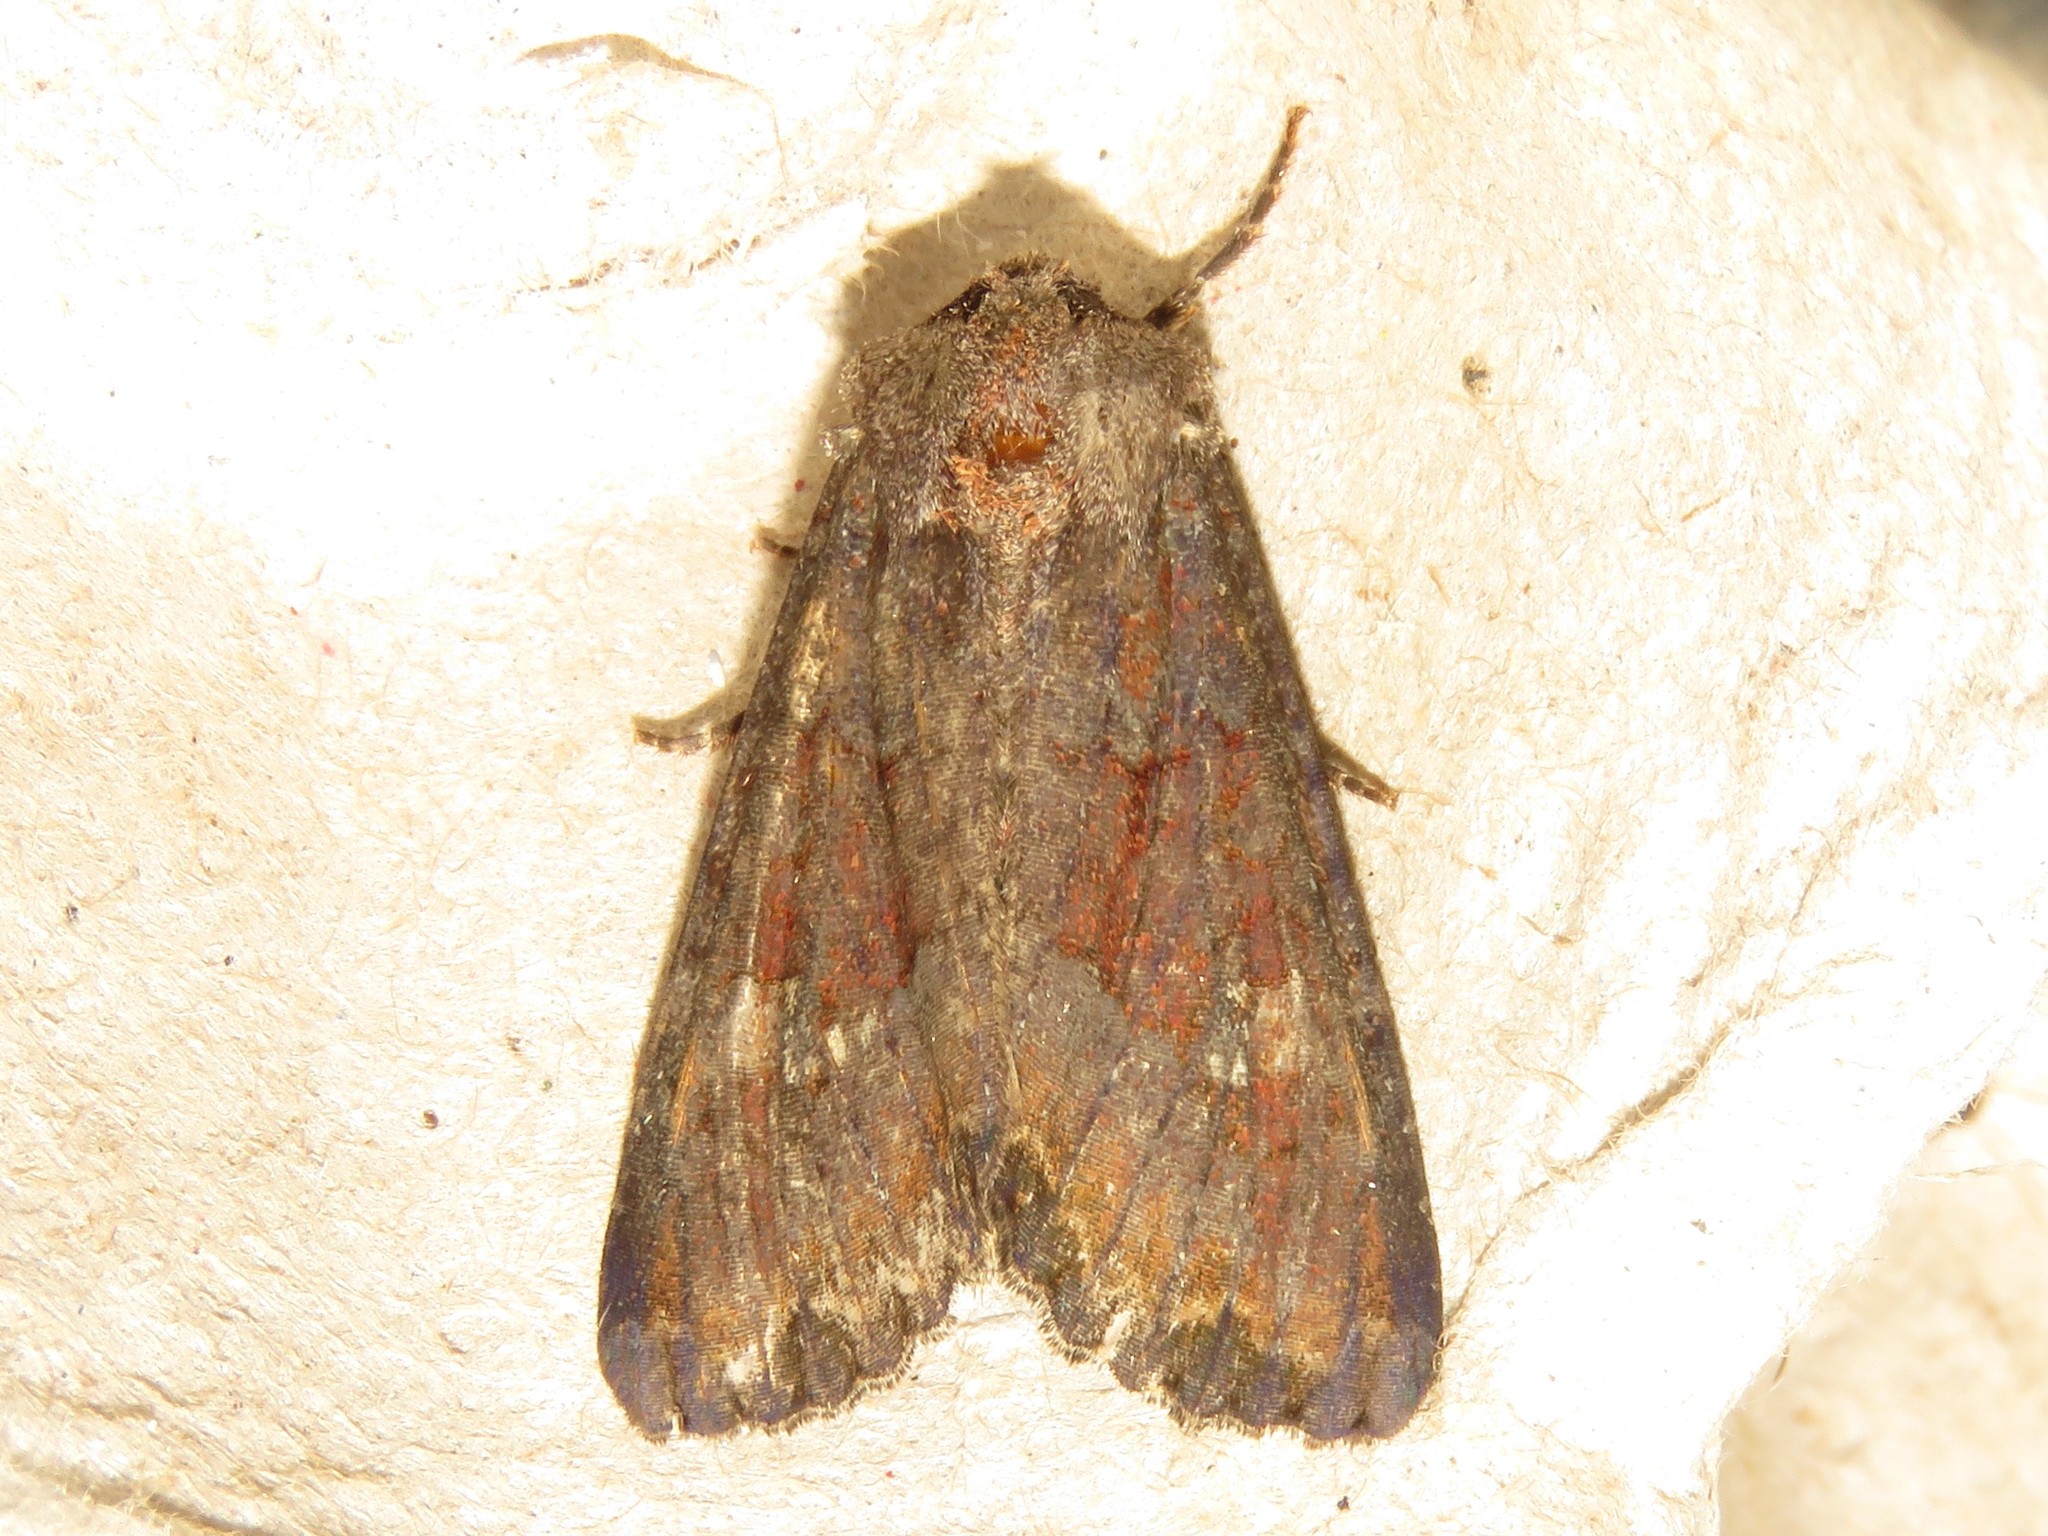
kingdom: Animalia
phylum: Arthropoda
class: Insecta
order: Lepidoptera
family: Noctuidae
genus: Apamea
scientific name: Apamea amputatrix
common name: Yellow-headed cutworm moth
